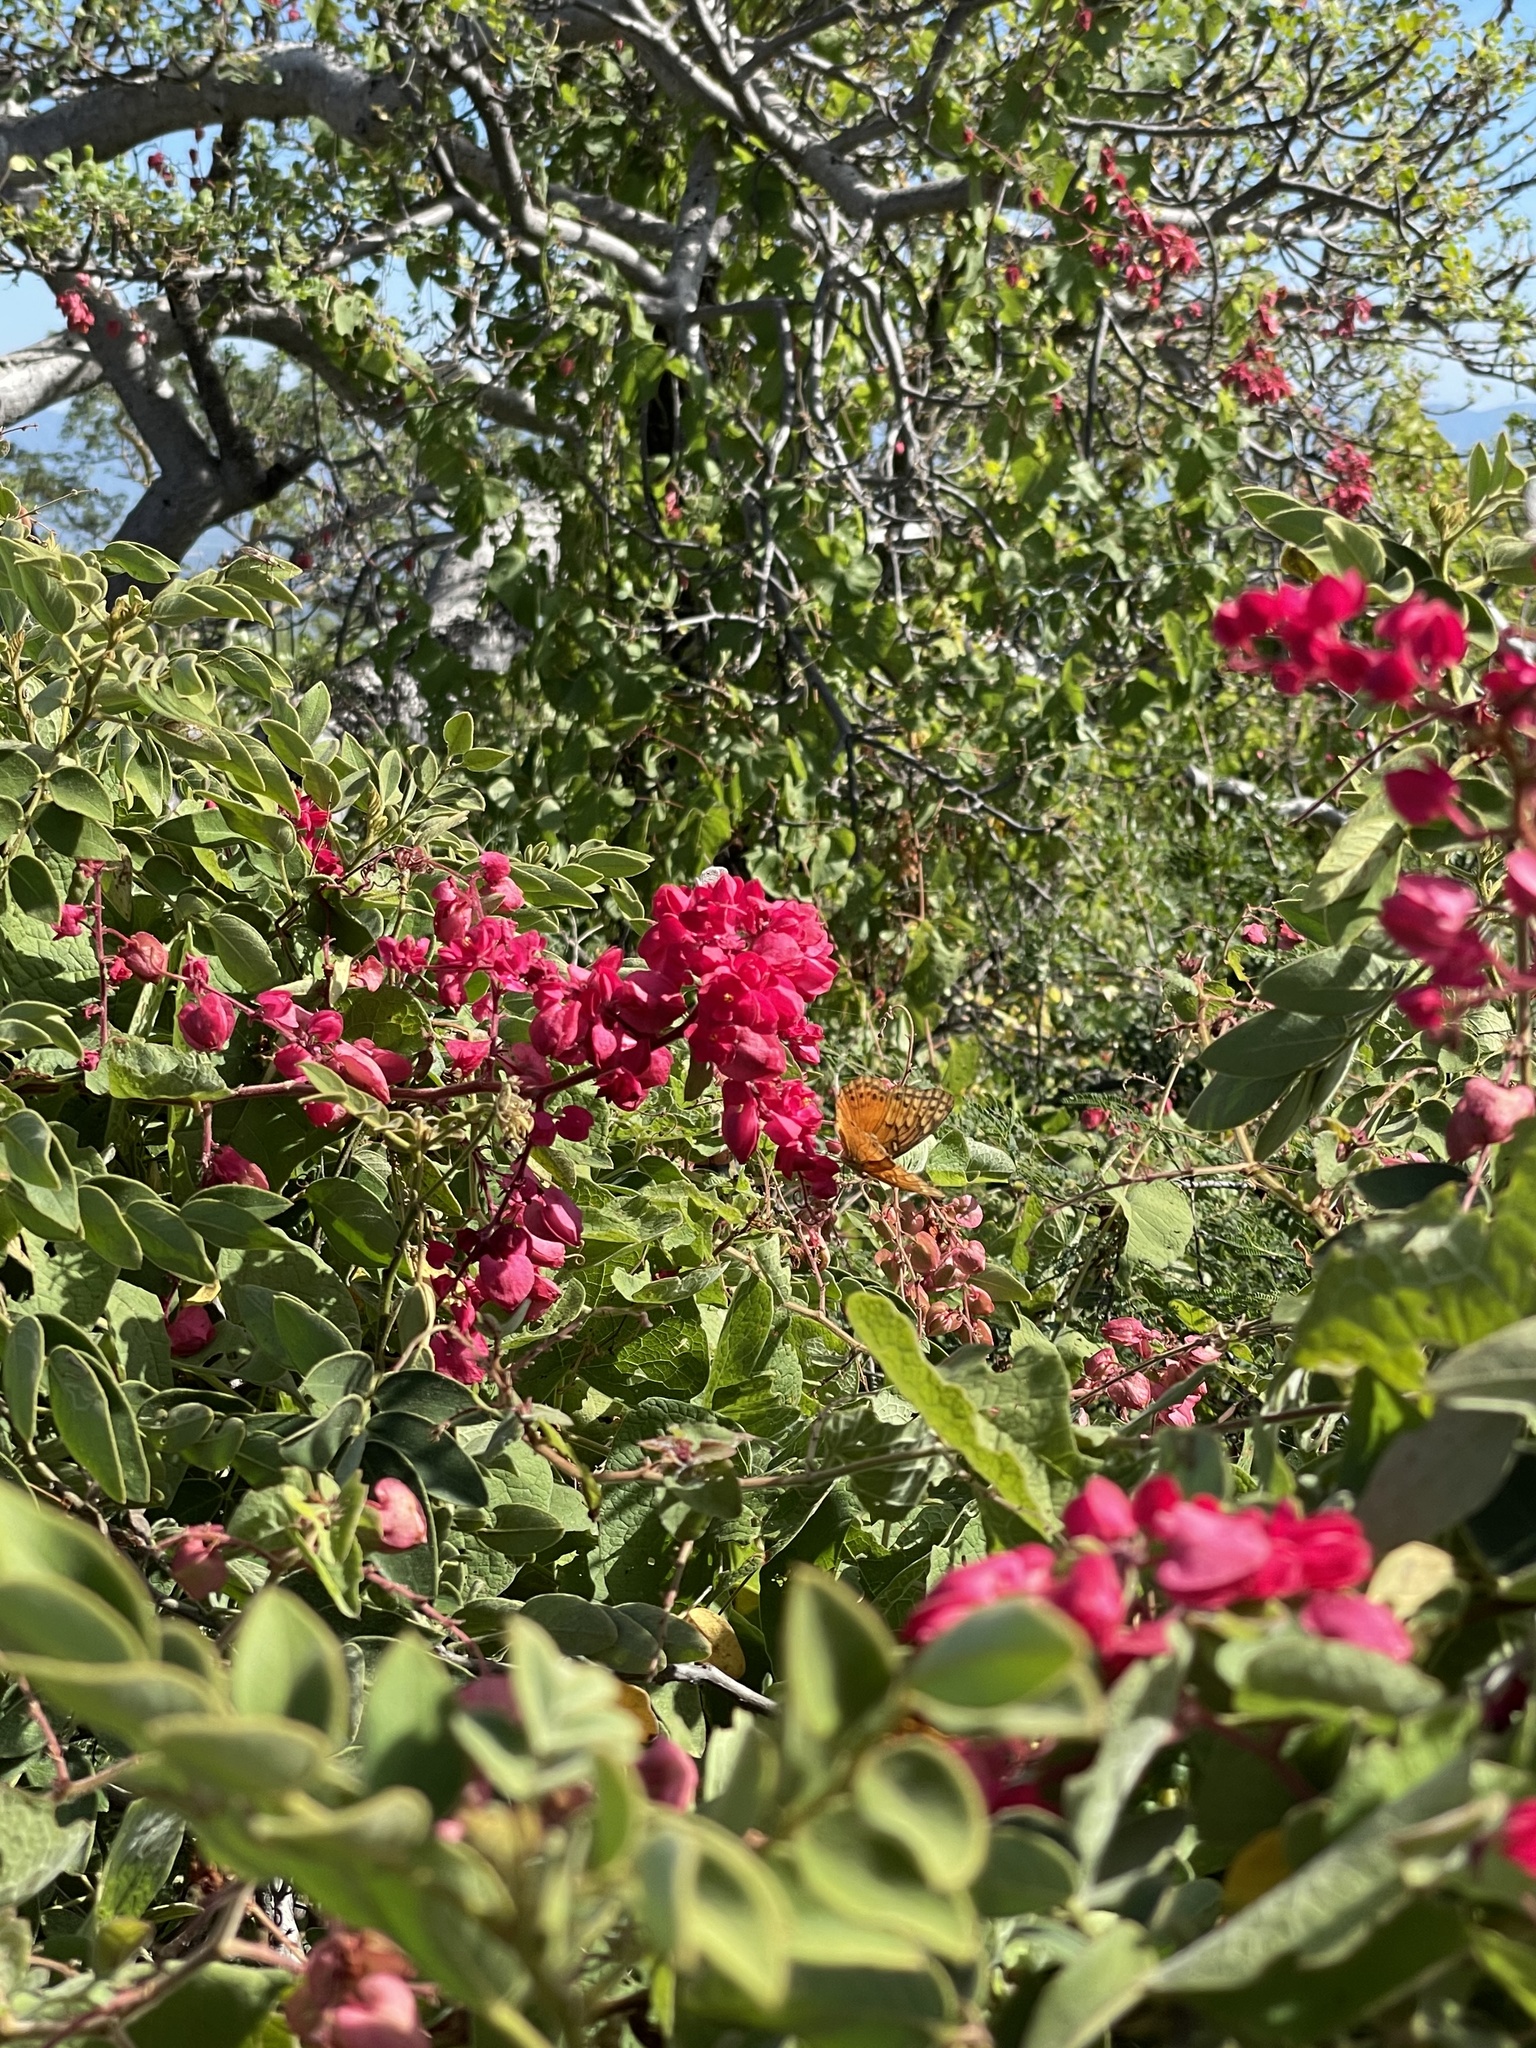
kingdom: Animalia
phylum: Arthropoda
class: Insecta
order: Lepidoptera
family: Nymphalidae
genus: Euptoieta
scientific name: Euptoieta hegesia
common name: Mexican fritillary
